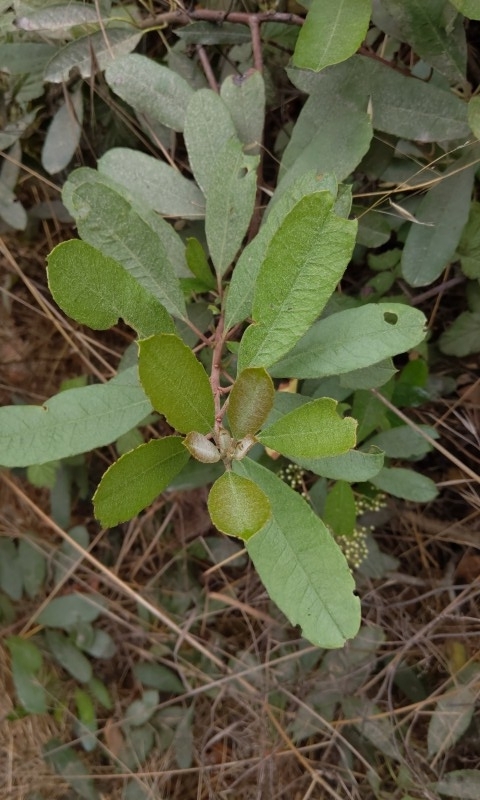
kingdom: Plantae
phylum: Tracheophyta
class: Magnoliopsida
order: Rosales
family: Rosaceae
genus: Heteromeles
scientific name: Heteromeles arbutifolia
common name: California-holly
